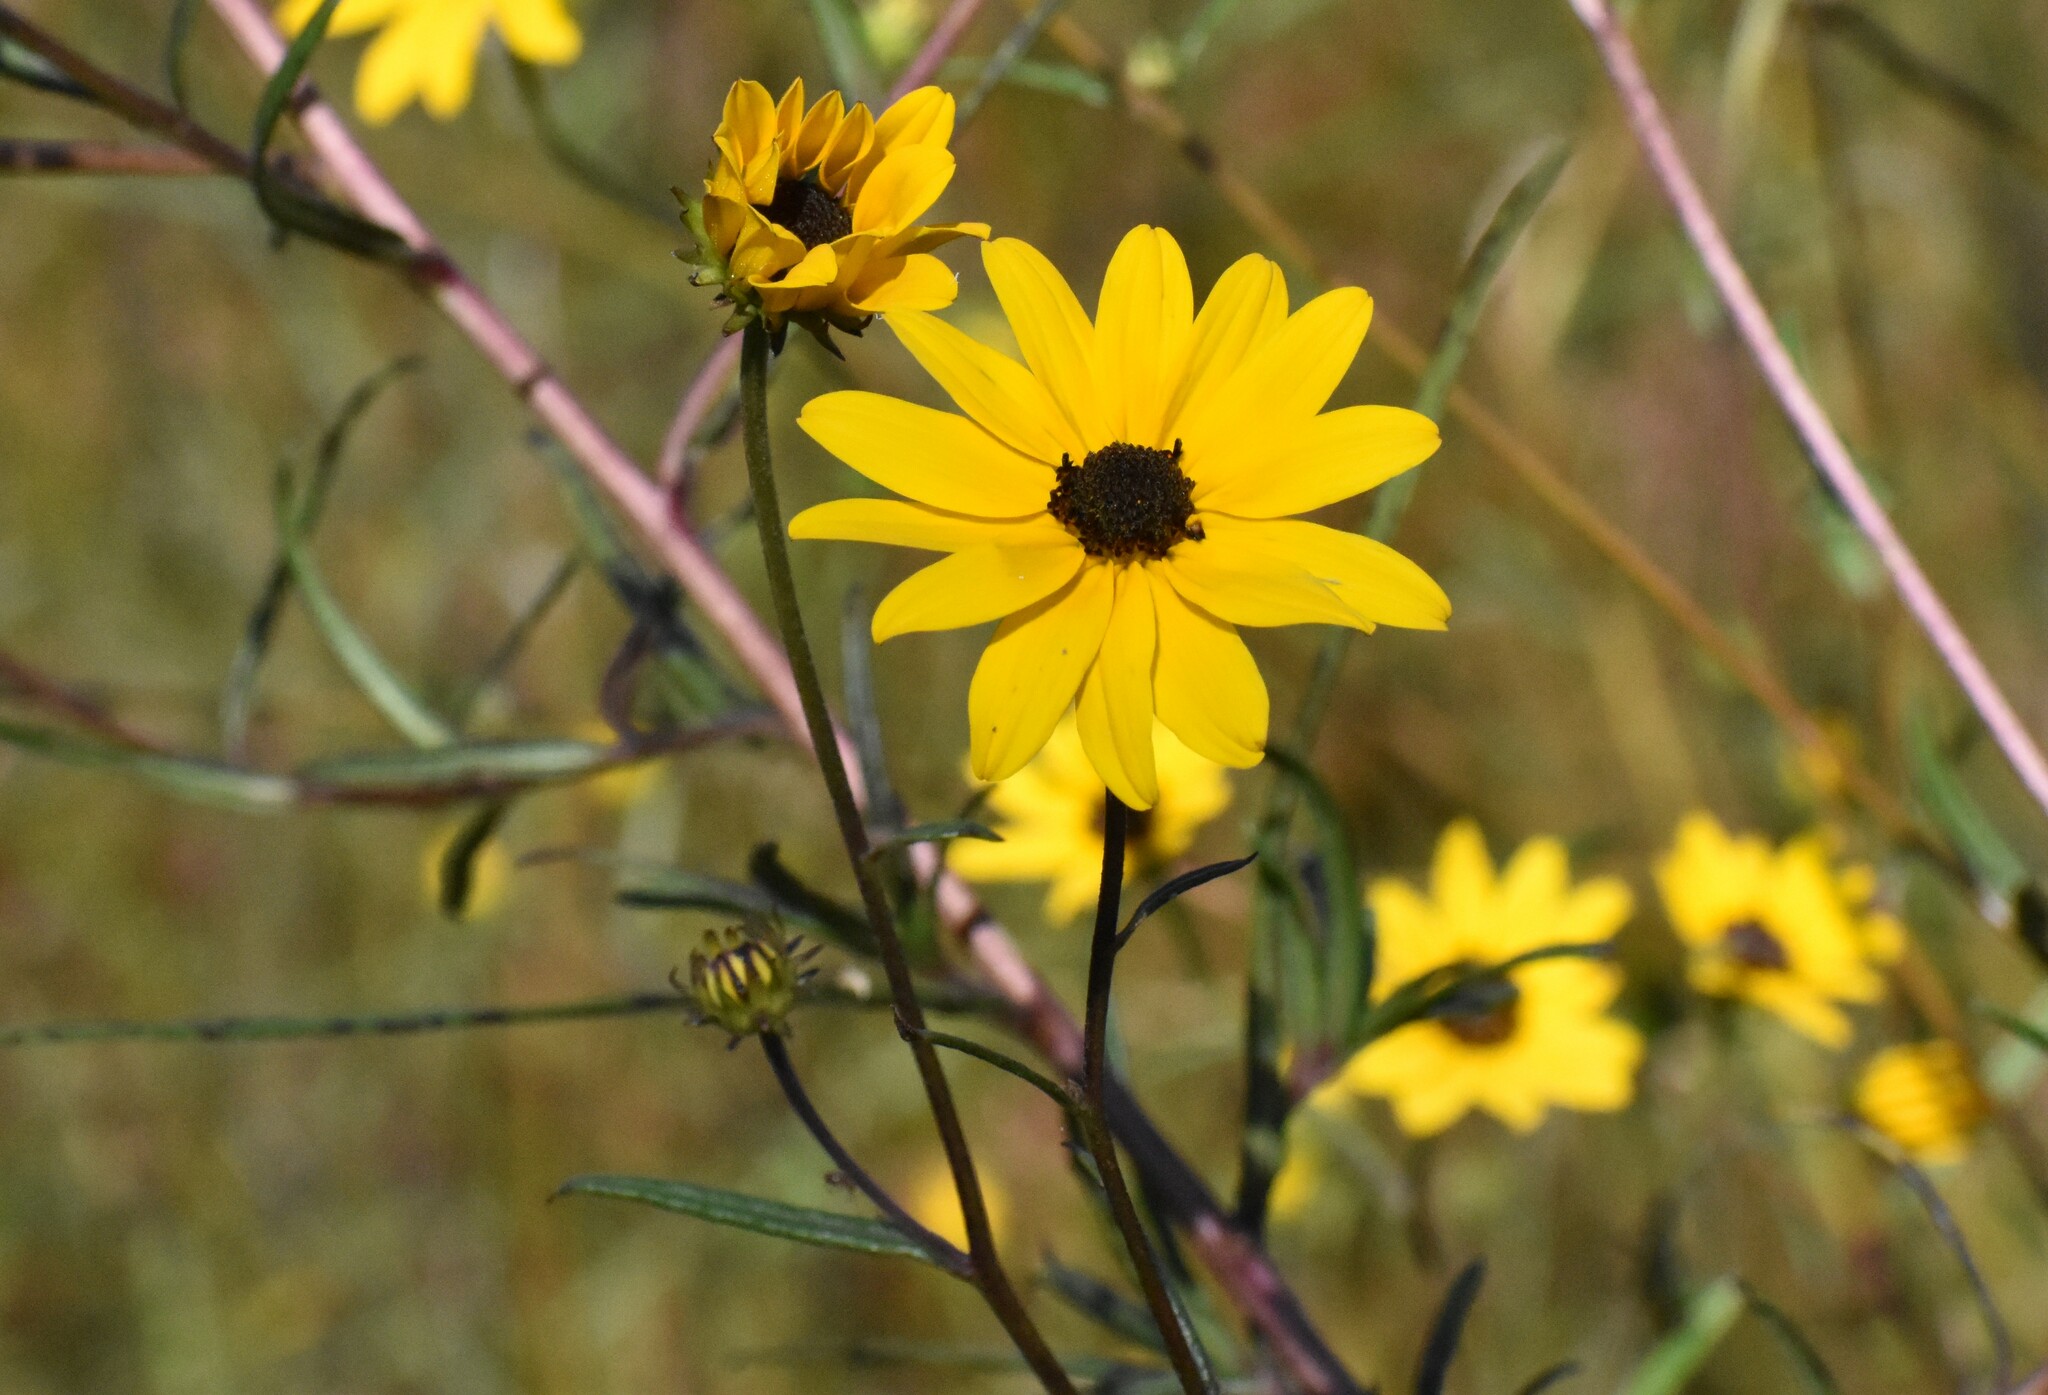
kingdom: Plantae
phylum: Tracheophyta
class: Magnoliopsida
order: Asterales
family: Asteraceae
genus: Helianthus
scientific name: Helianthus angustifolius
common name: Swamp sunflower
